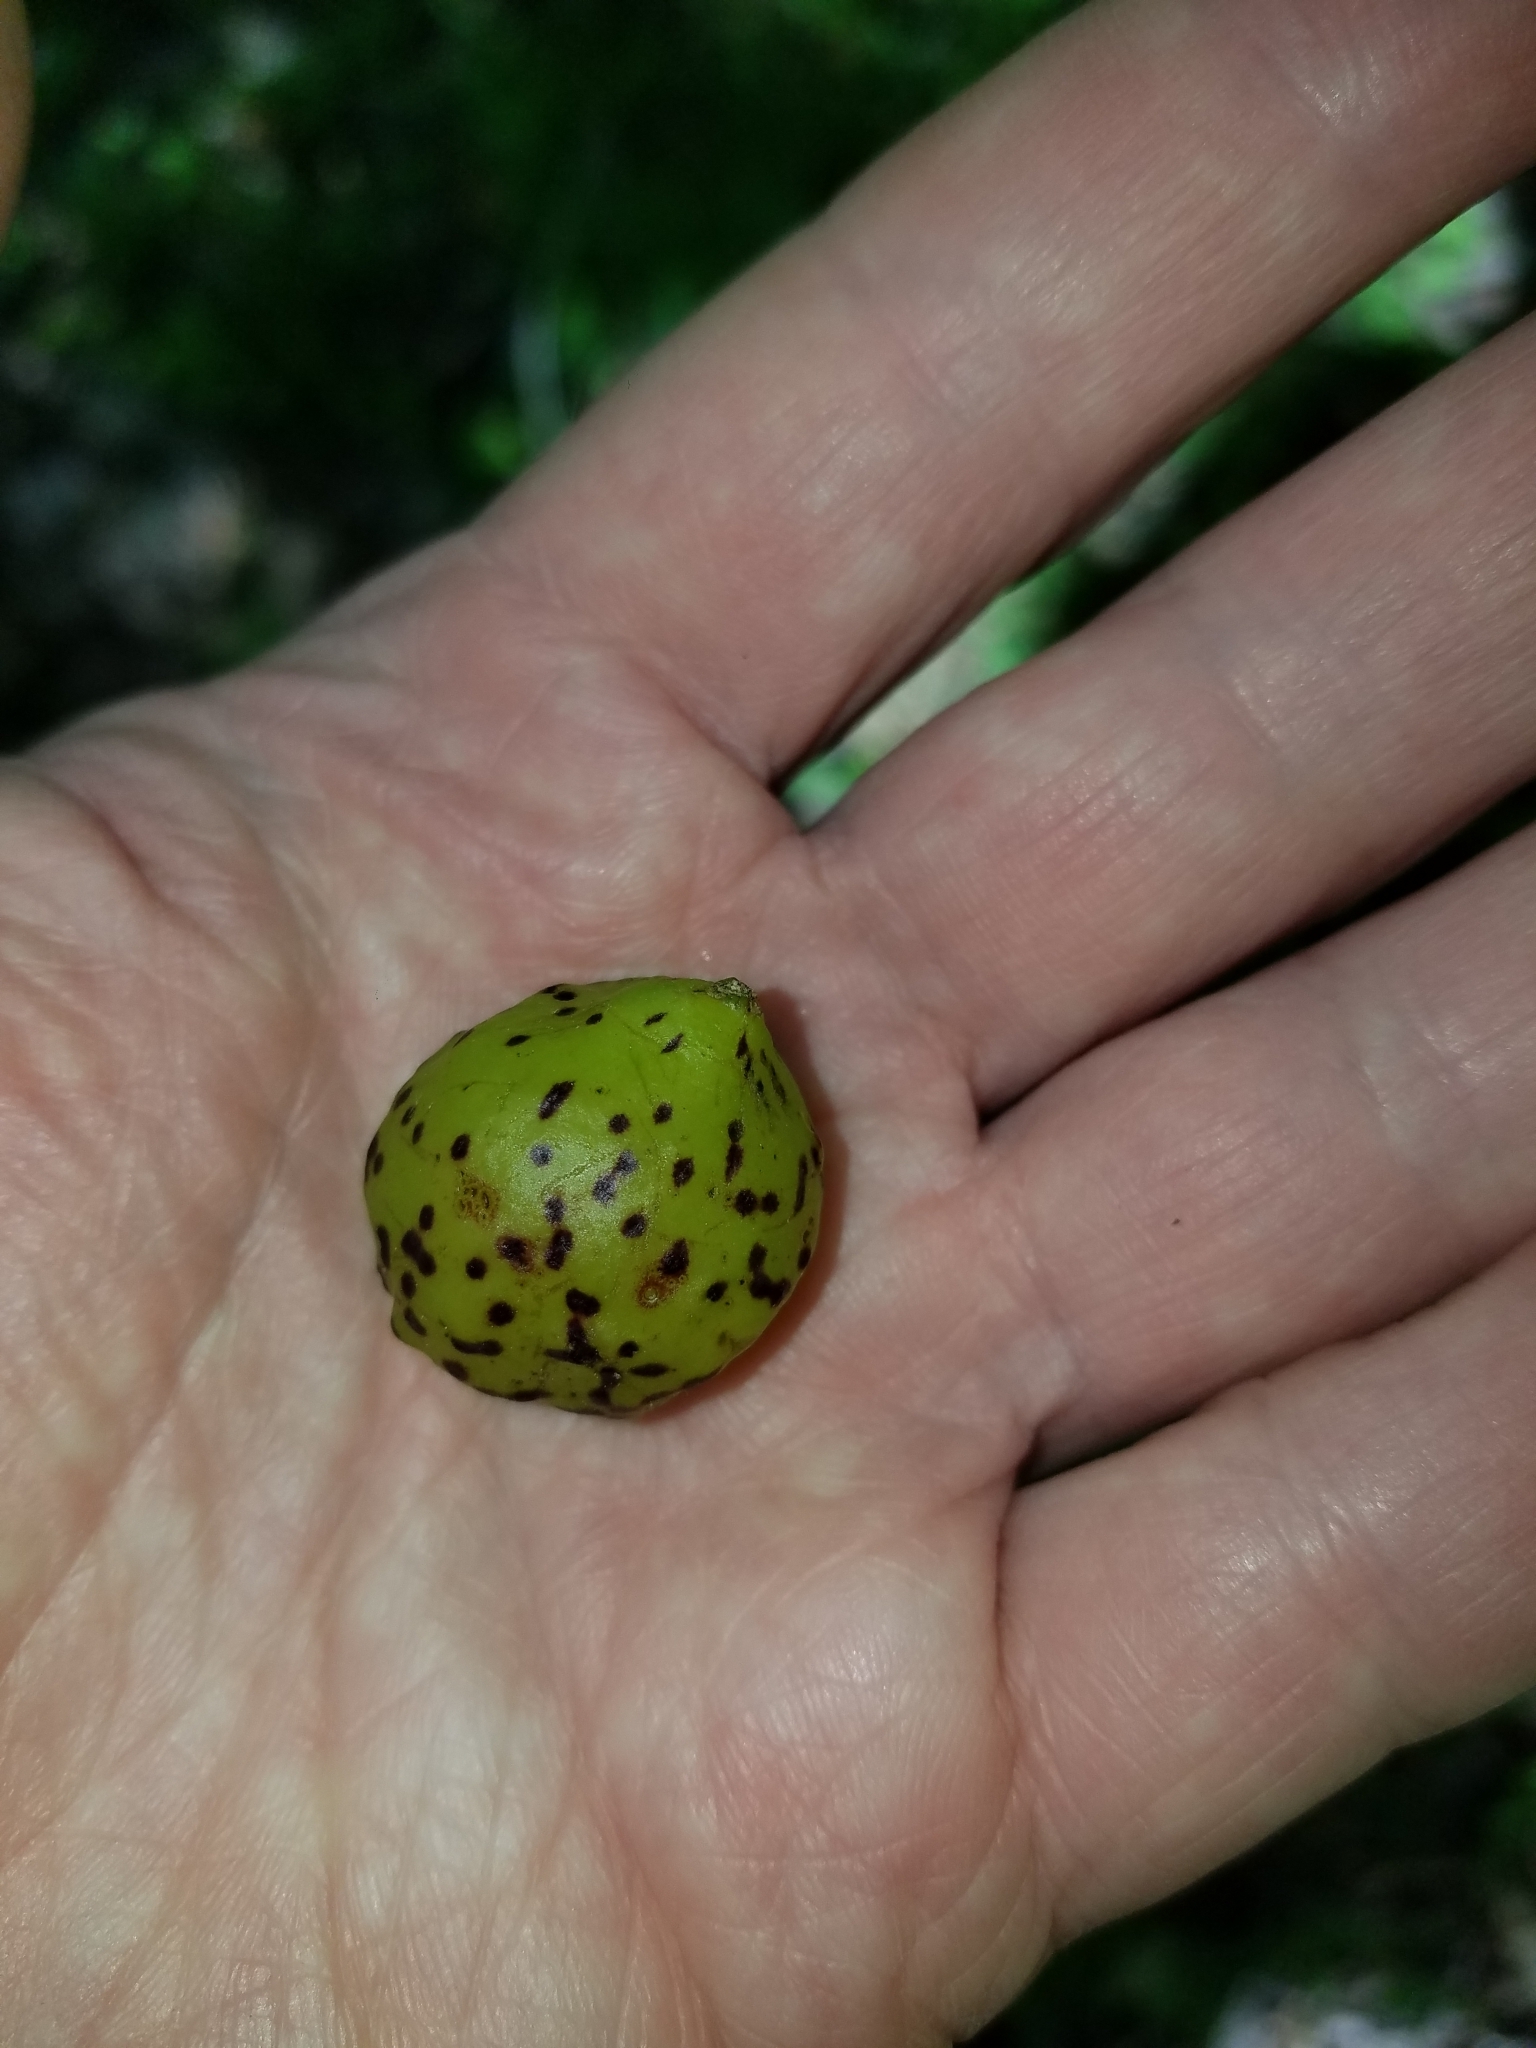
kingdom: Animalia
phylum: Arthropoda
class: Insecta
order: Hymenoptera
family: Cynipidae
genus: Amphibolips
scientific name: Amphibolips
